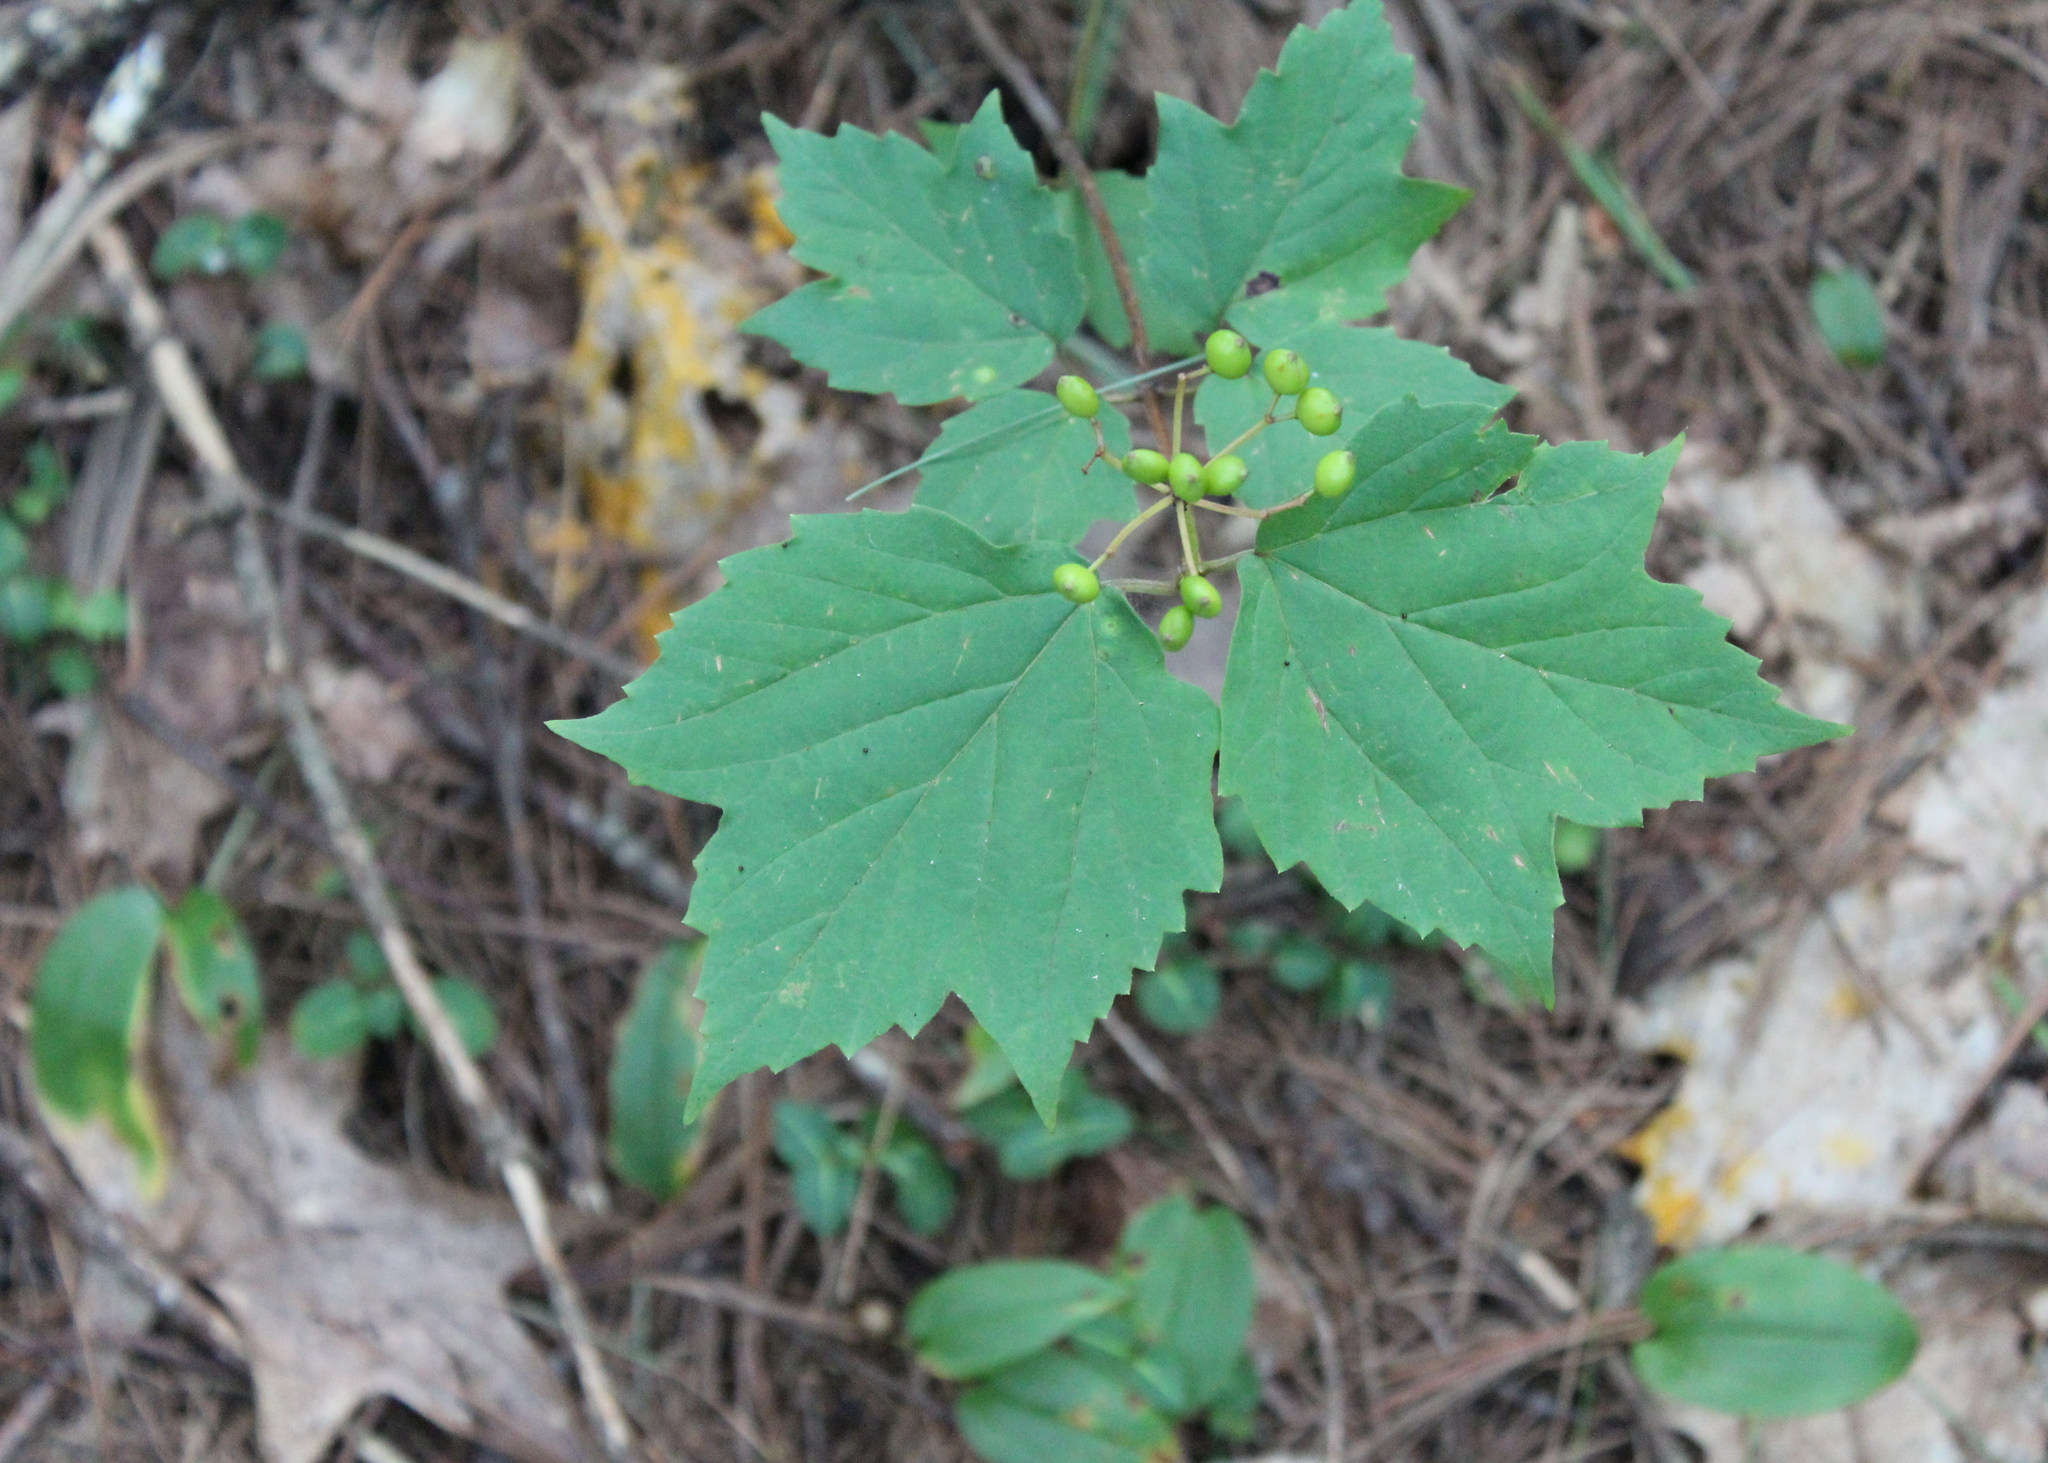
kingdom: Plantae
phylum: Tracheophyta
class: Magnoliopsida
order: Dipsacales
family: Viburnaceae
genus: Viburnum
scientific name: Viburnum acerifolium
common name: Dockmackie
